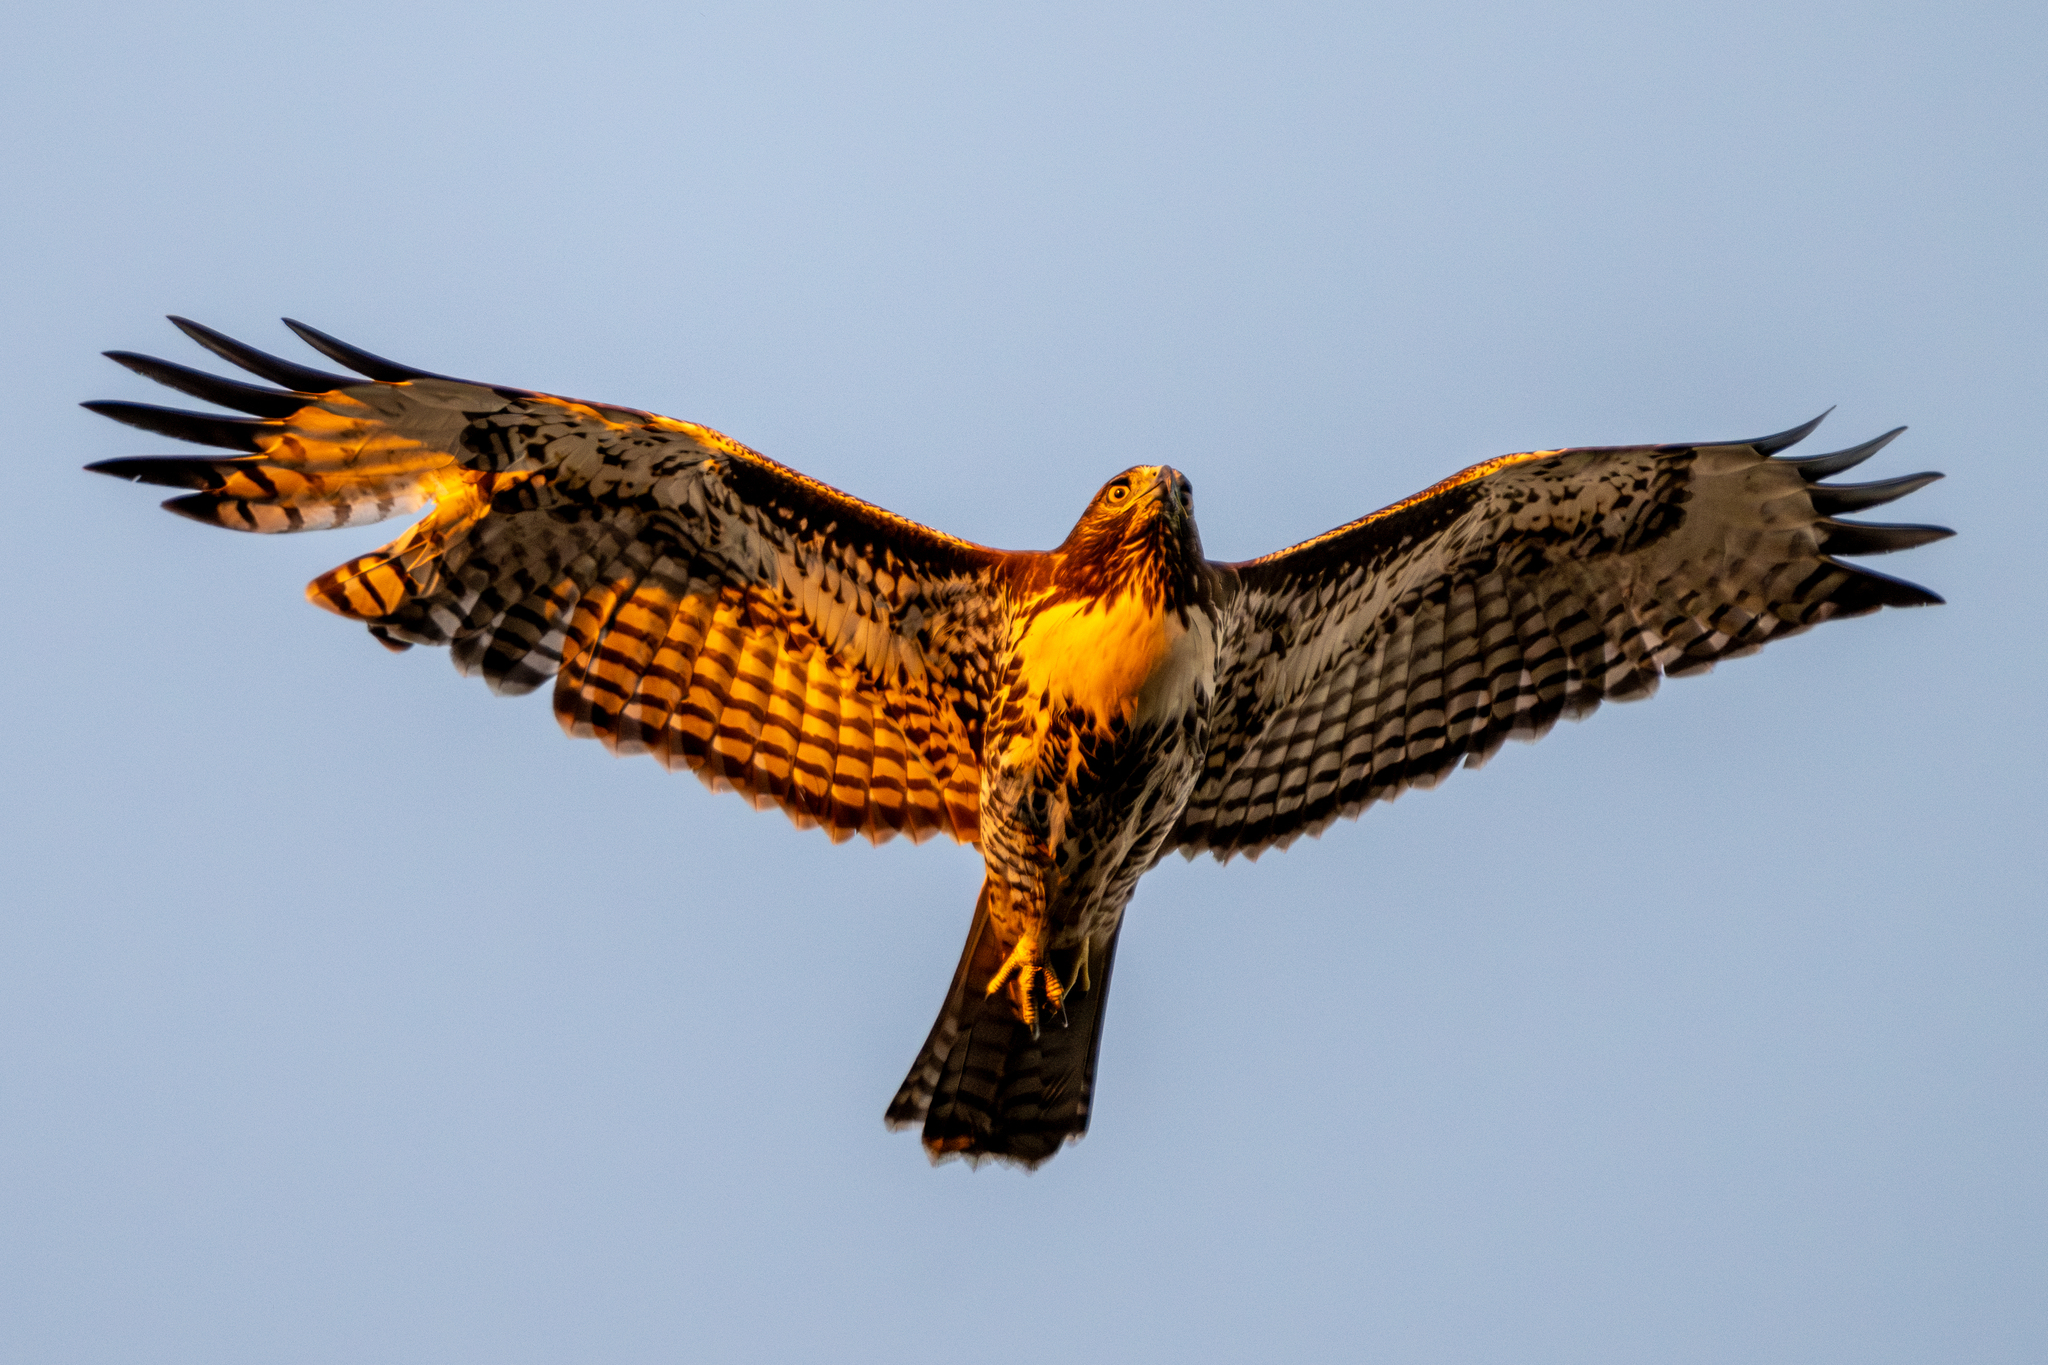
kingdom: Animalia
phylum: Chordata
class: Aves
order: Accipitriformes
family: Accipitridae
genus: Buteo
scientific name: Buteo jamaicensis
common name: Red-tailed hawk
